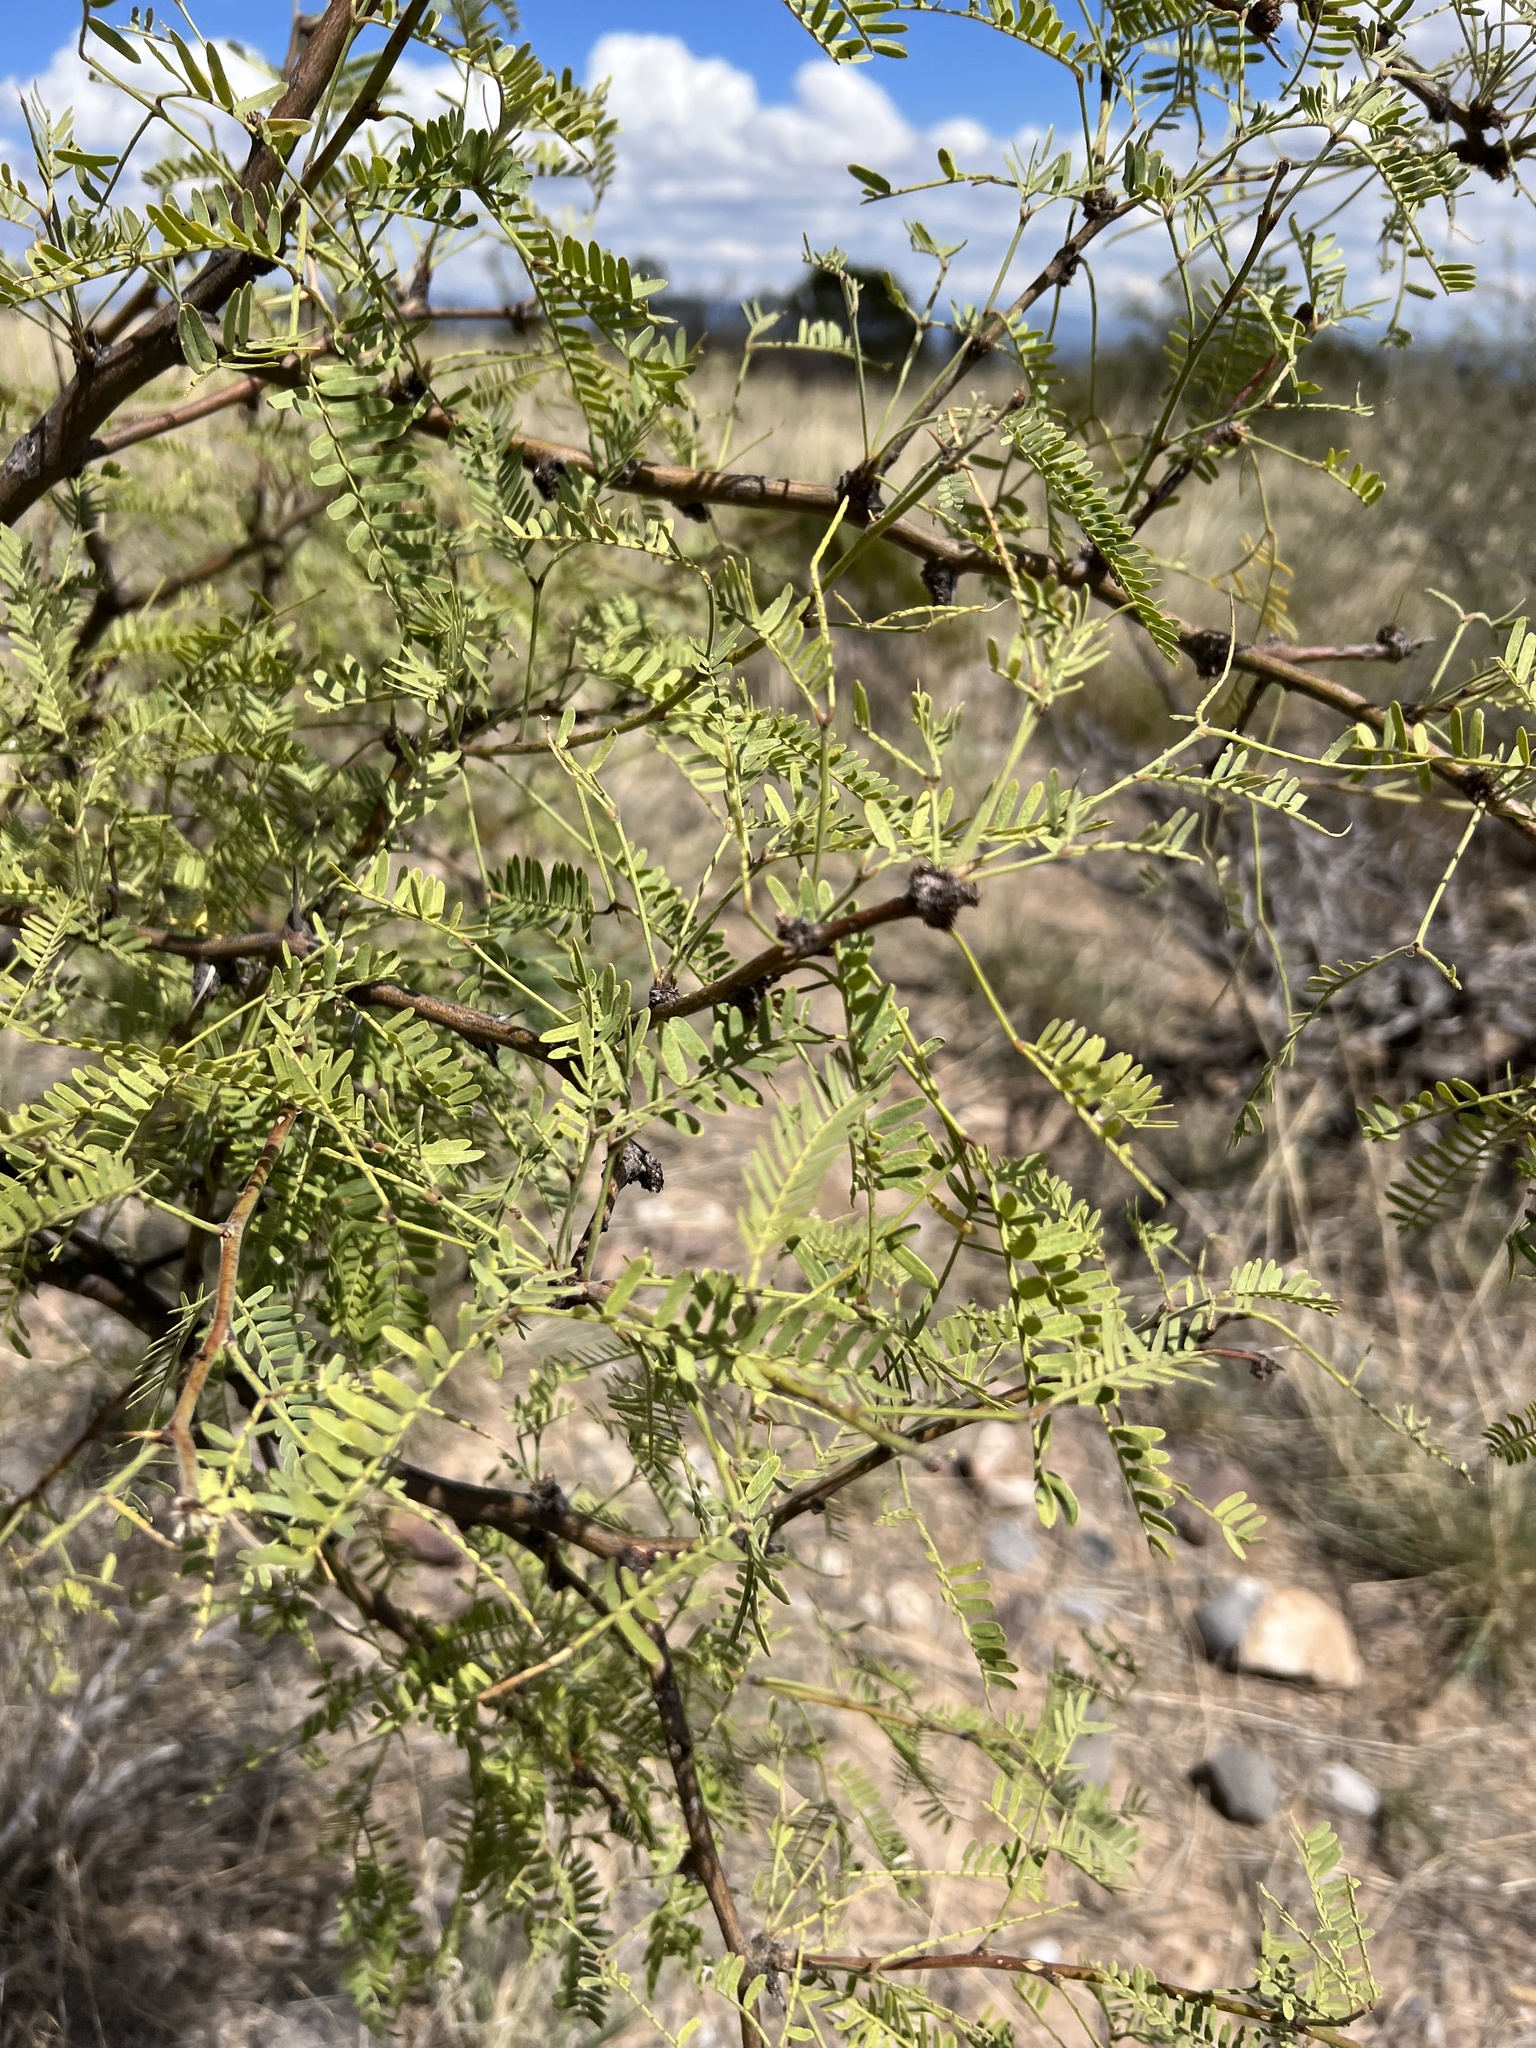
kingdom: Plantae
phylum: Tracheophyta
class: Magnoliopsida
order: Fabales
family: Fabaceae
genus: Prosopis
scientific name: Prosopis glandulosa
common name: Honey mesquite
